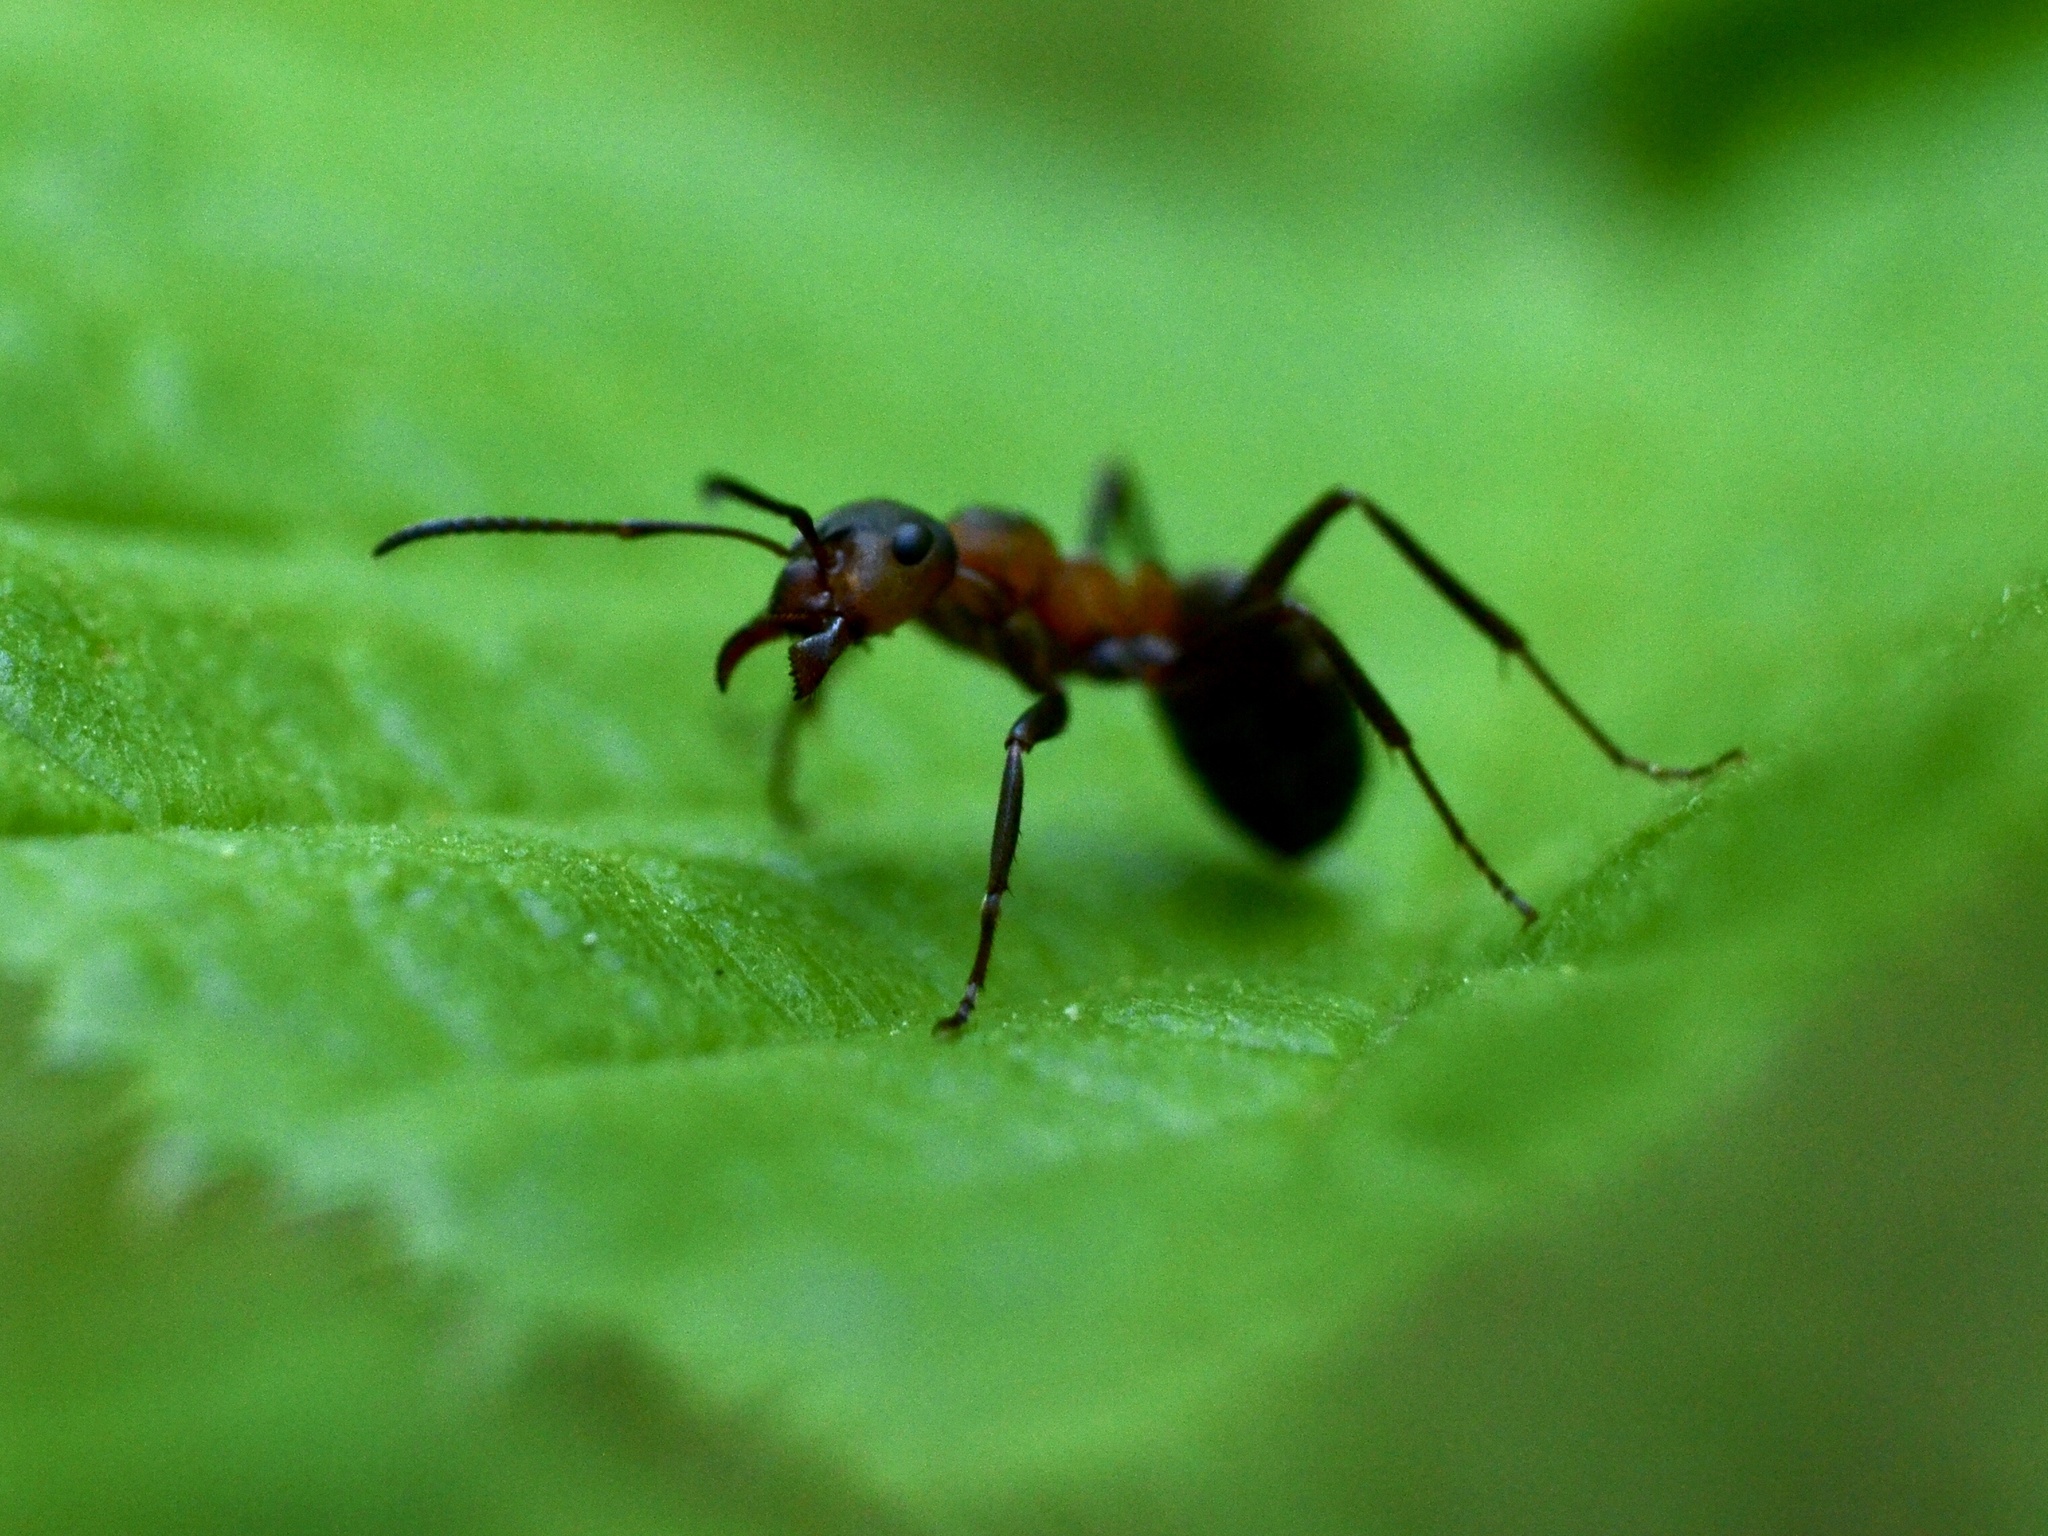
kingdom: Animalia
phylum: Arthropoda
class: Insecta
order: Hymenoptera
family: Formicidae
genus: Formica
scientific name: Formica rufa
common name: Red wood ant
